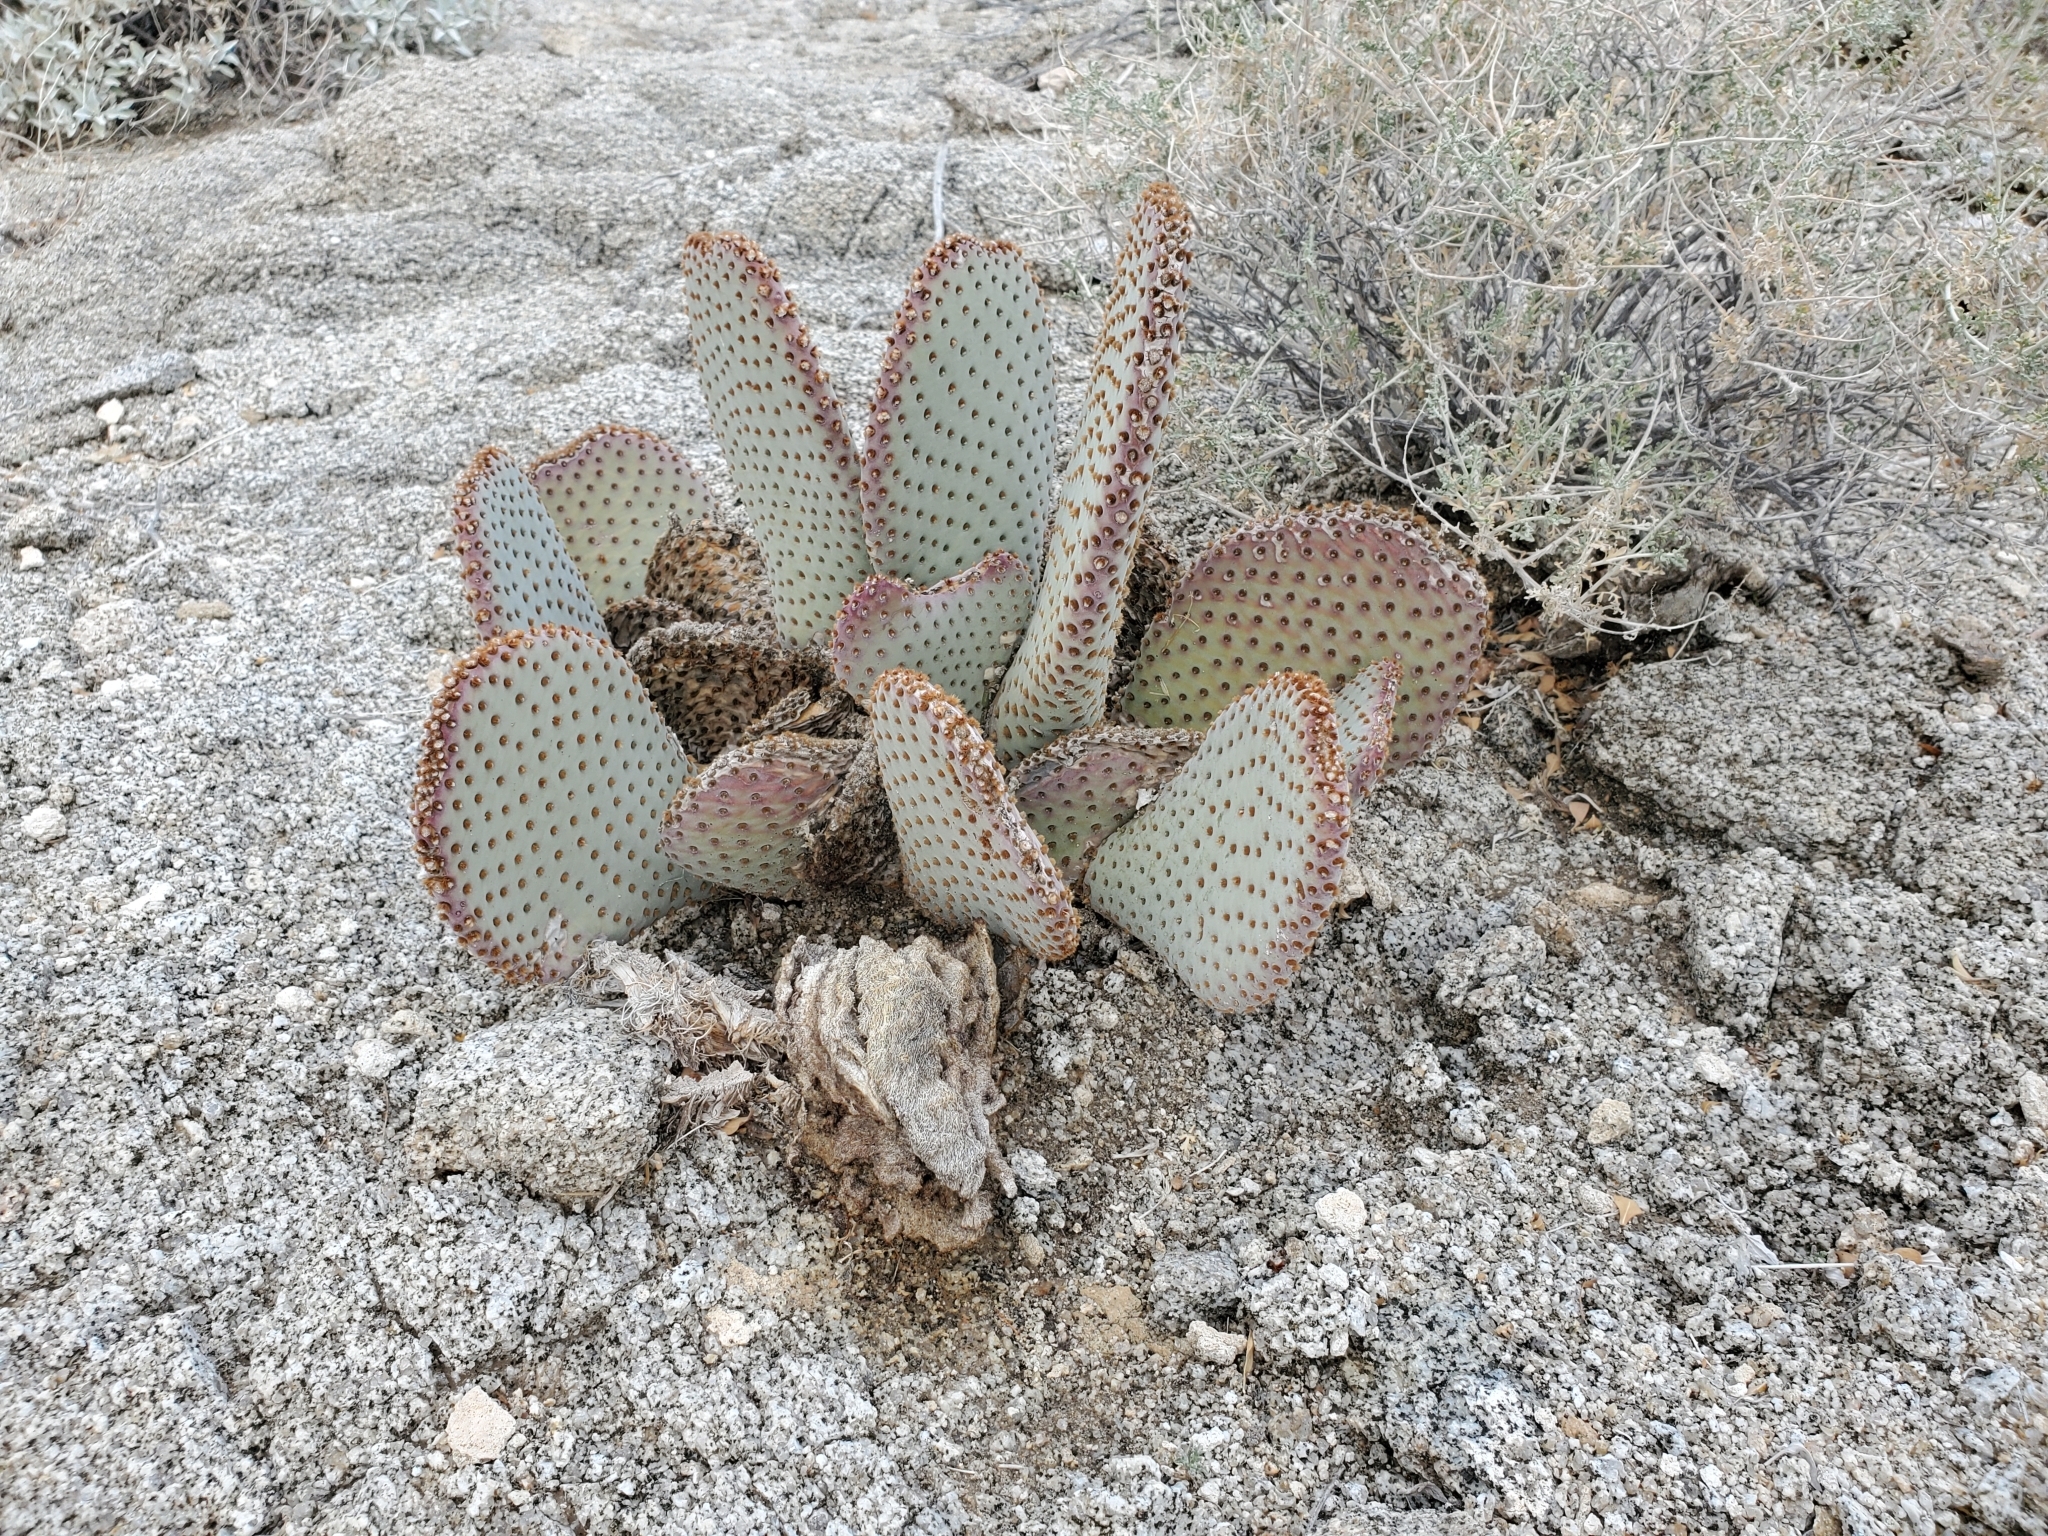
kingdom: Plantae
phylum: Tracheophyta
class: Magnoliopsida
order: Caryophyllales
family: Cactaceae
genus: Opuntia
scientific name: Opuntia basilaris
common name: Beavertail prickly-pear
